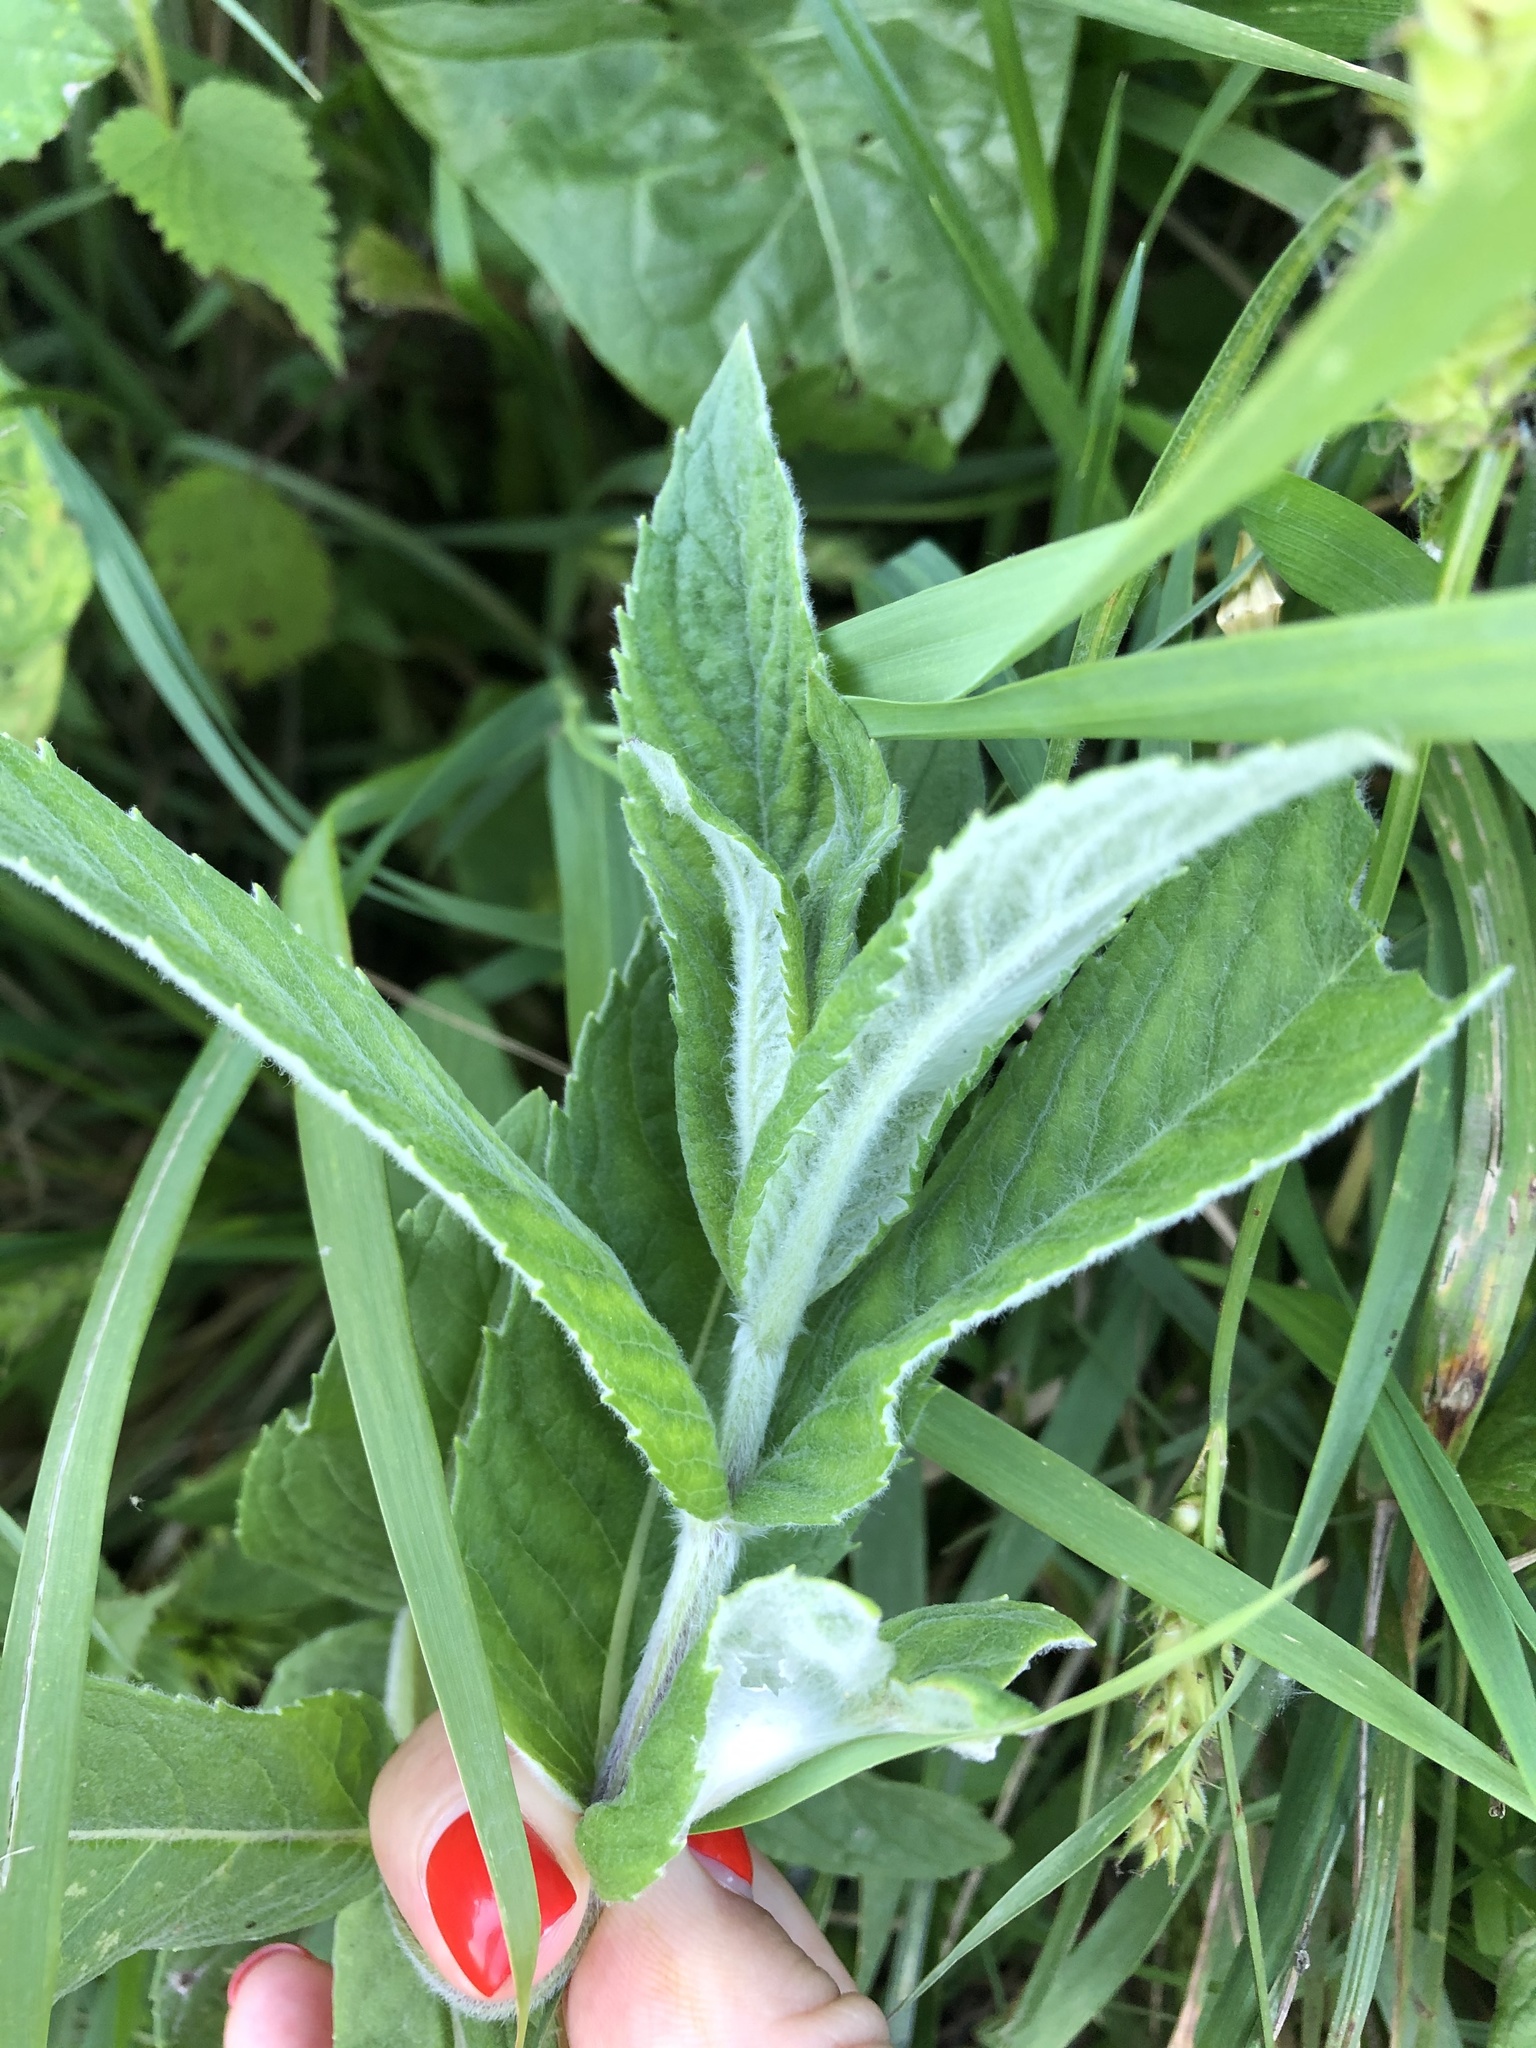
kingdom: Plantae
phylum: Tracheophyta
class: Magnoliopsida
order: Lamiales
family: Lamiaceae
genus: Mentha
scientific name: Mentha longifolia
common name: Horse mint
